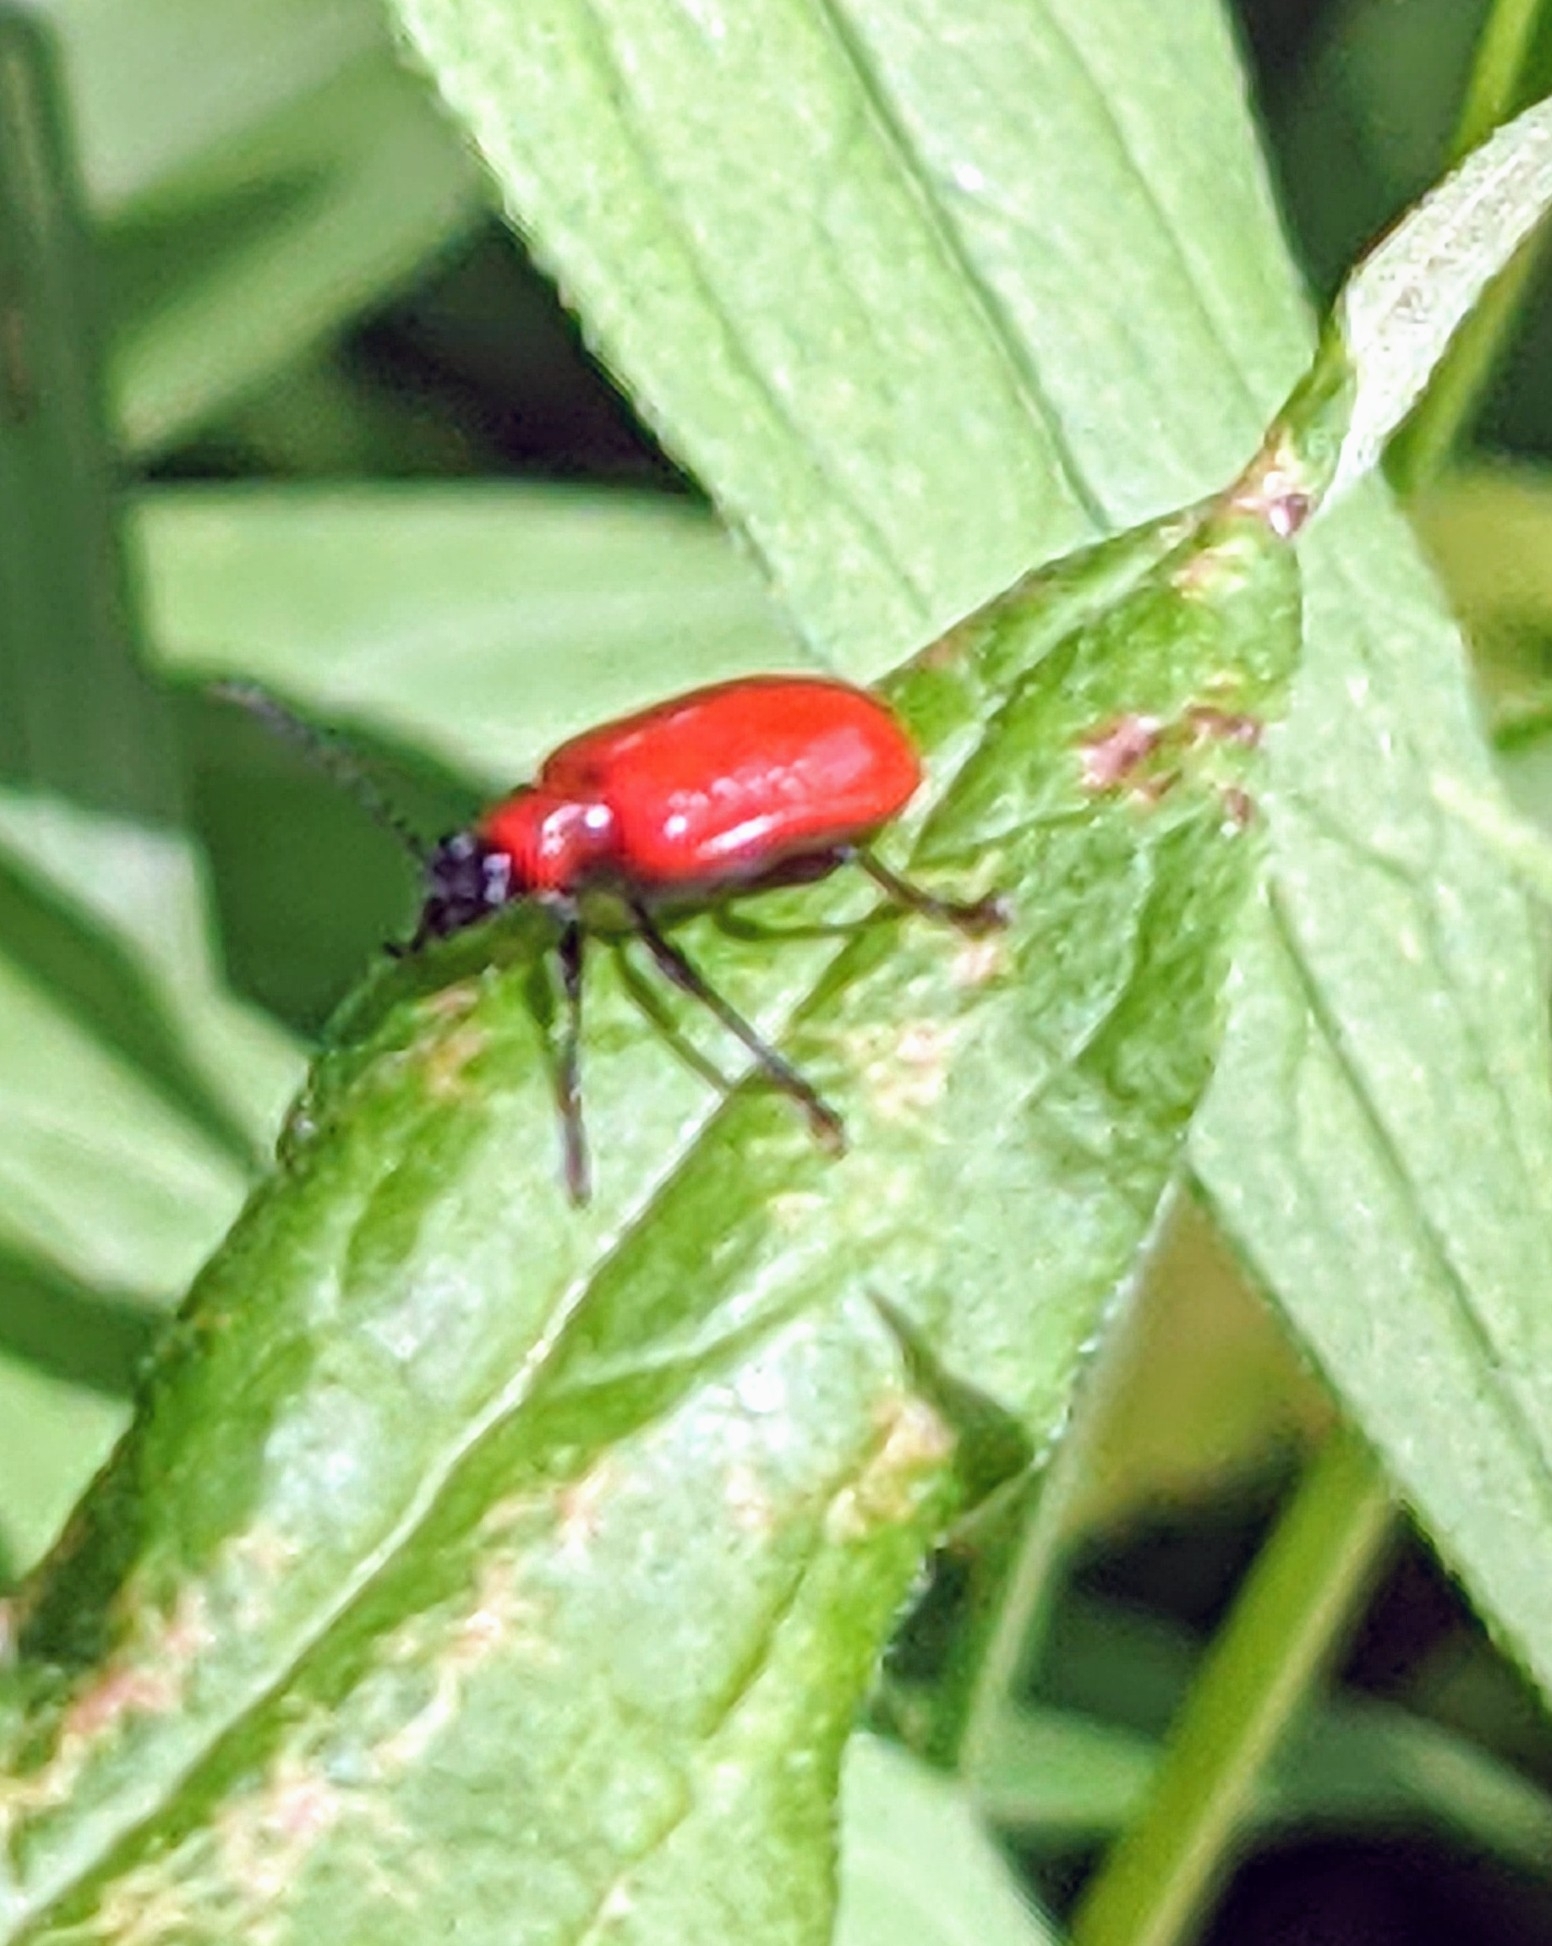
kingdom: Animalia
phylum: Arthropoda
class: Insecta
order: Coleoptera
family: Chrysomelidae
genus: Lilioceris
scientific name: Lilioceris lilii
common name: Lily beetle
